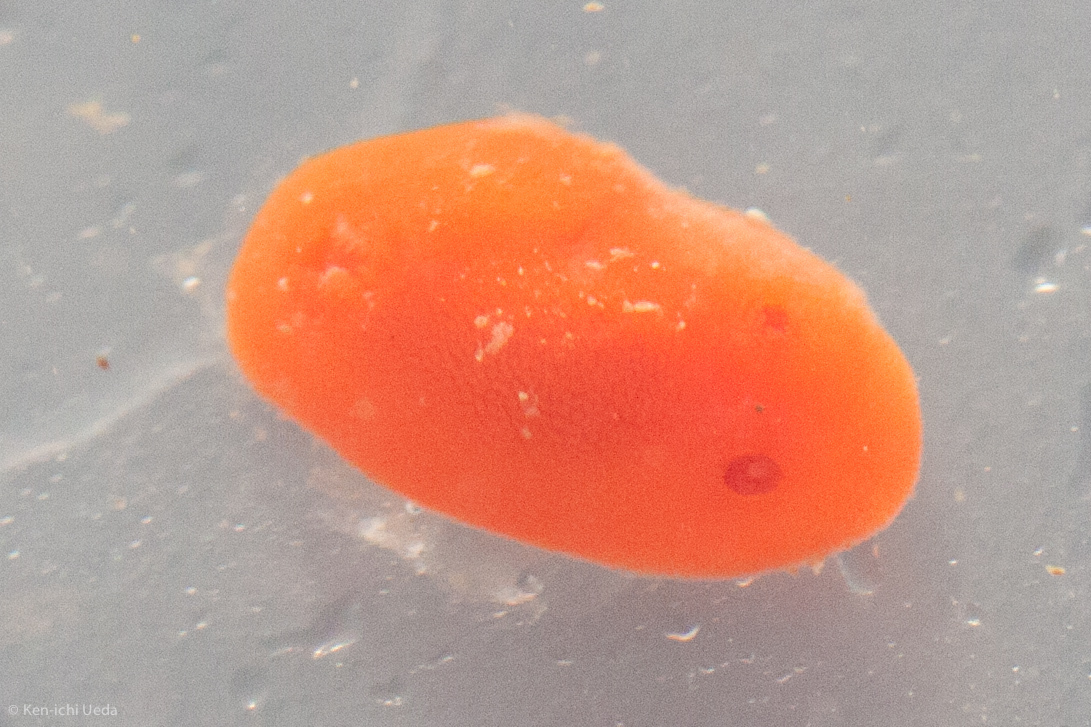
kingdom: Animalia
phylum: Mollusca
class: Gastropoda
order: Nudibranchia
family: Discodorididae
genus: Rostanga
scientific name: Rostanga pulchra
